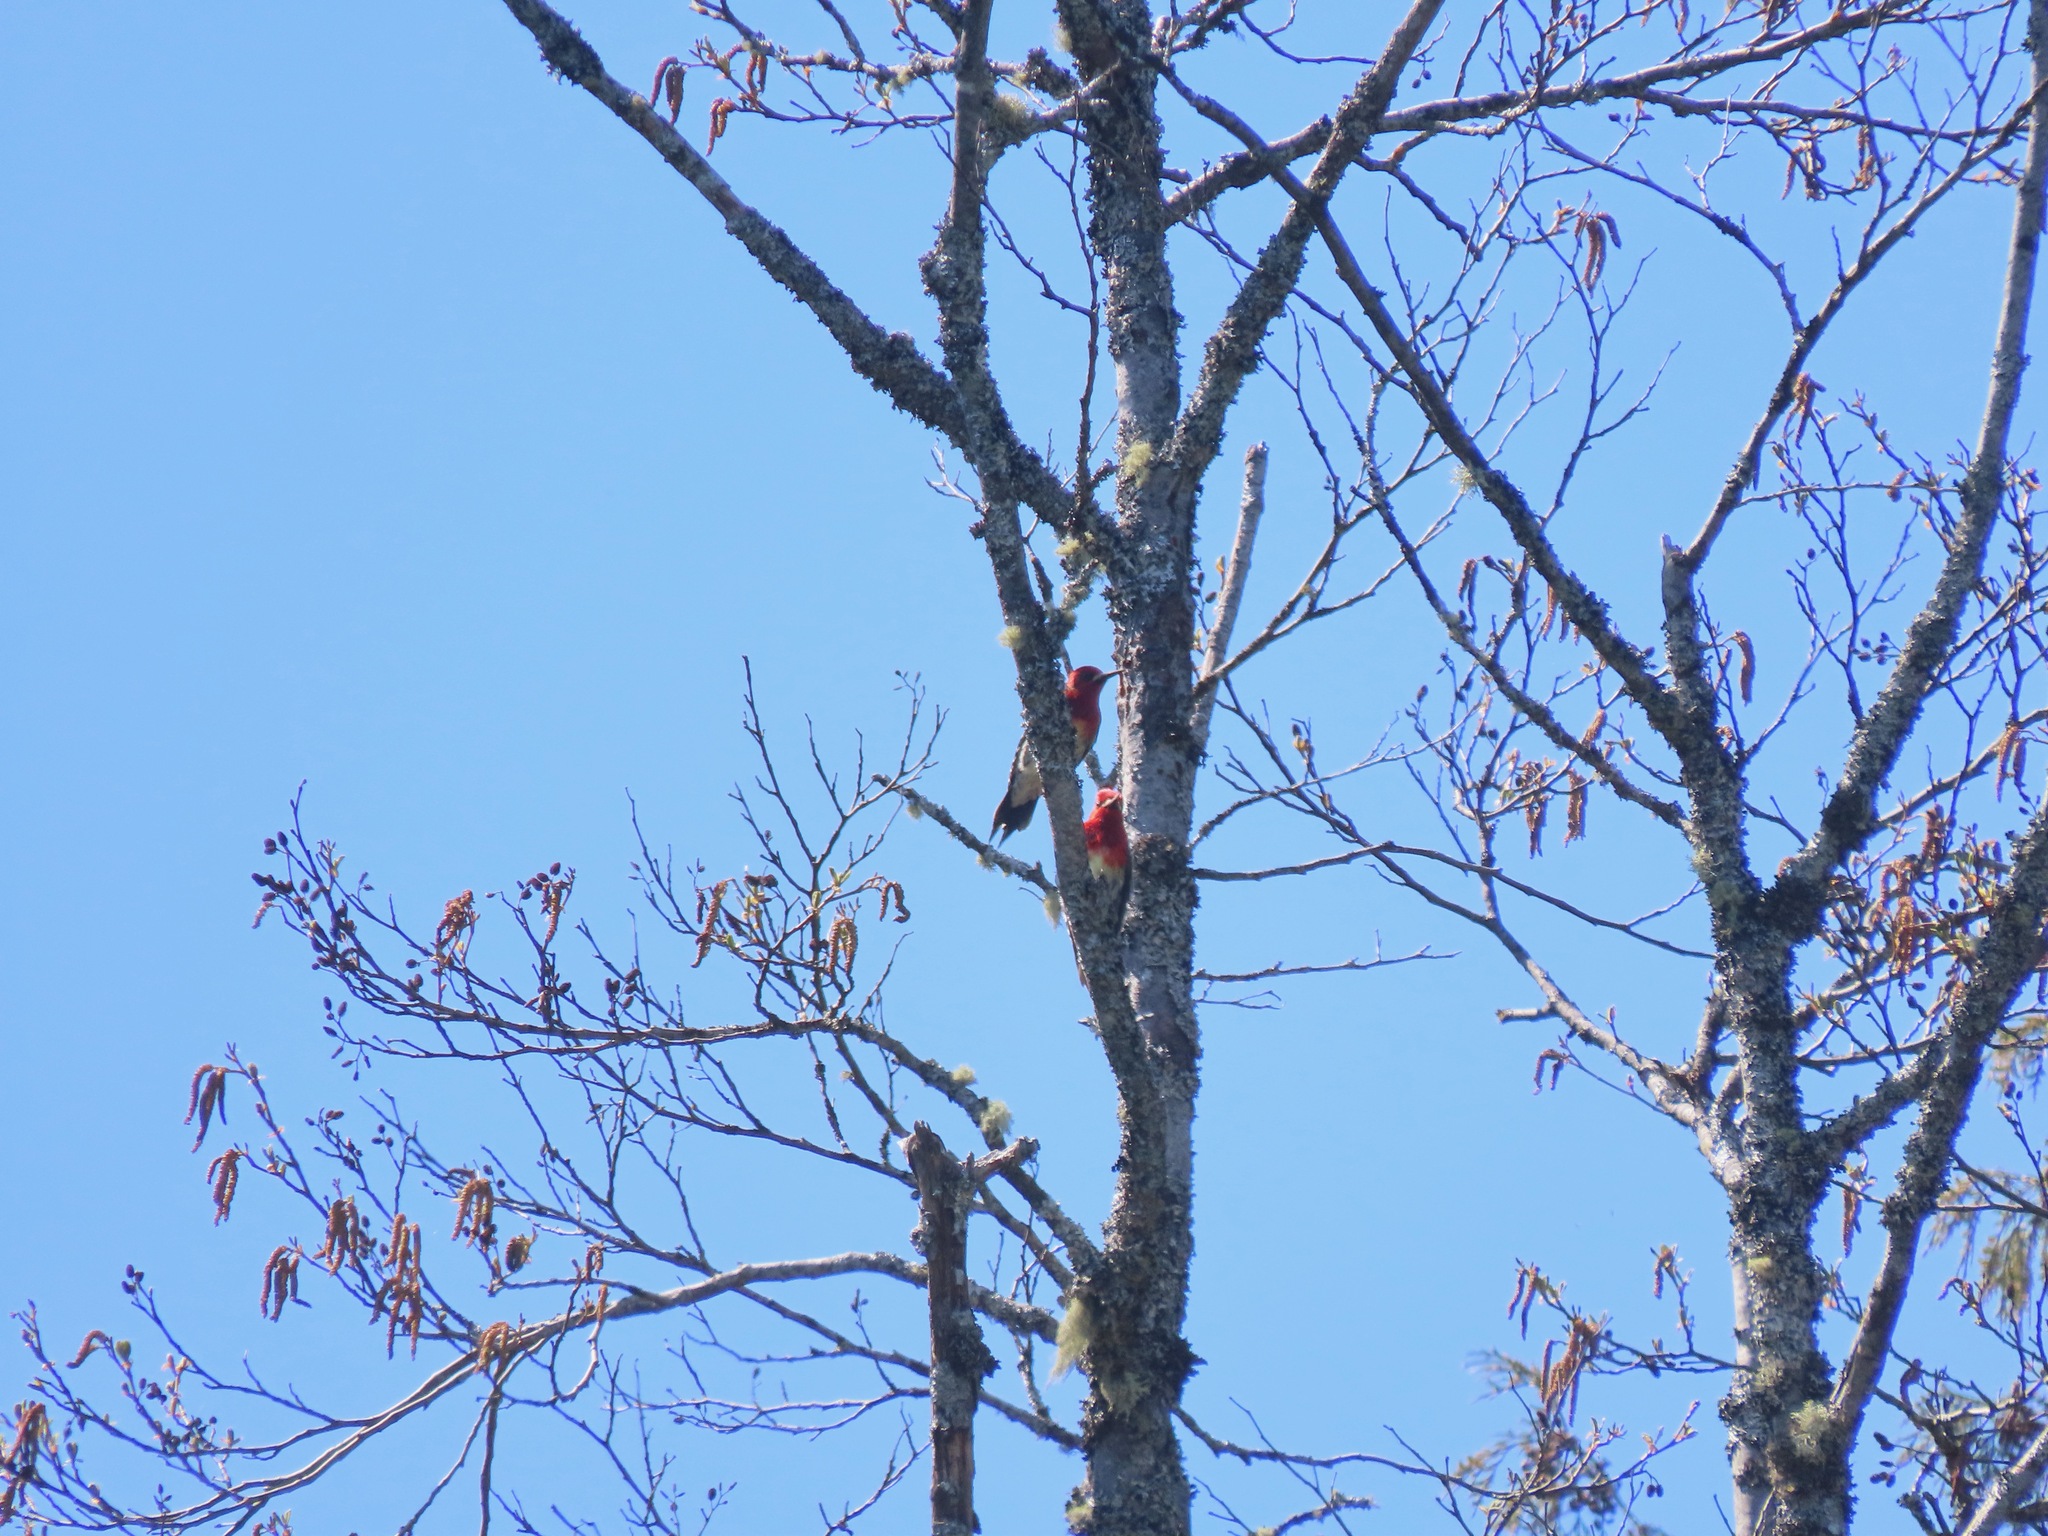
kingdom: Animalia
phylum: Chordata
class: Aves
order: Piciformes
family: Picidae
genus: Sphyrapicus
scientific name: Sphyrapicus ruber
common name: Red-breasted sapsucker
